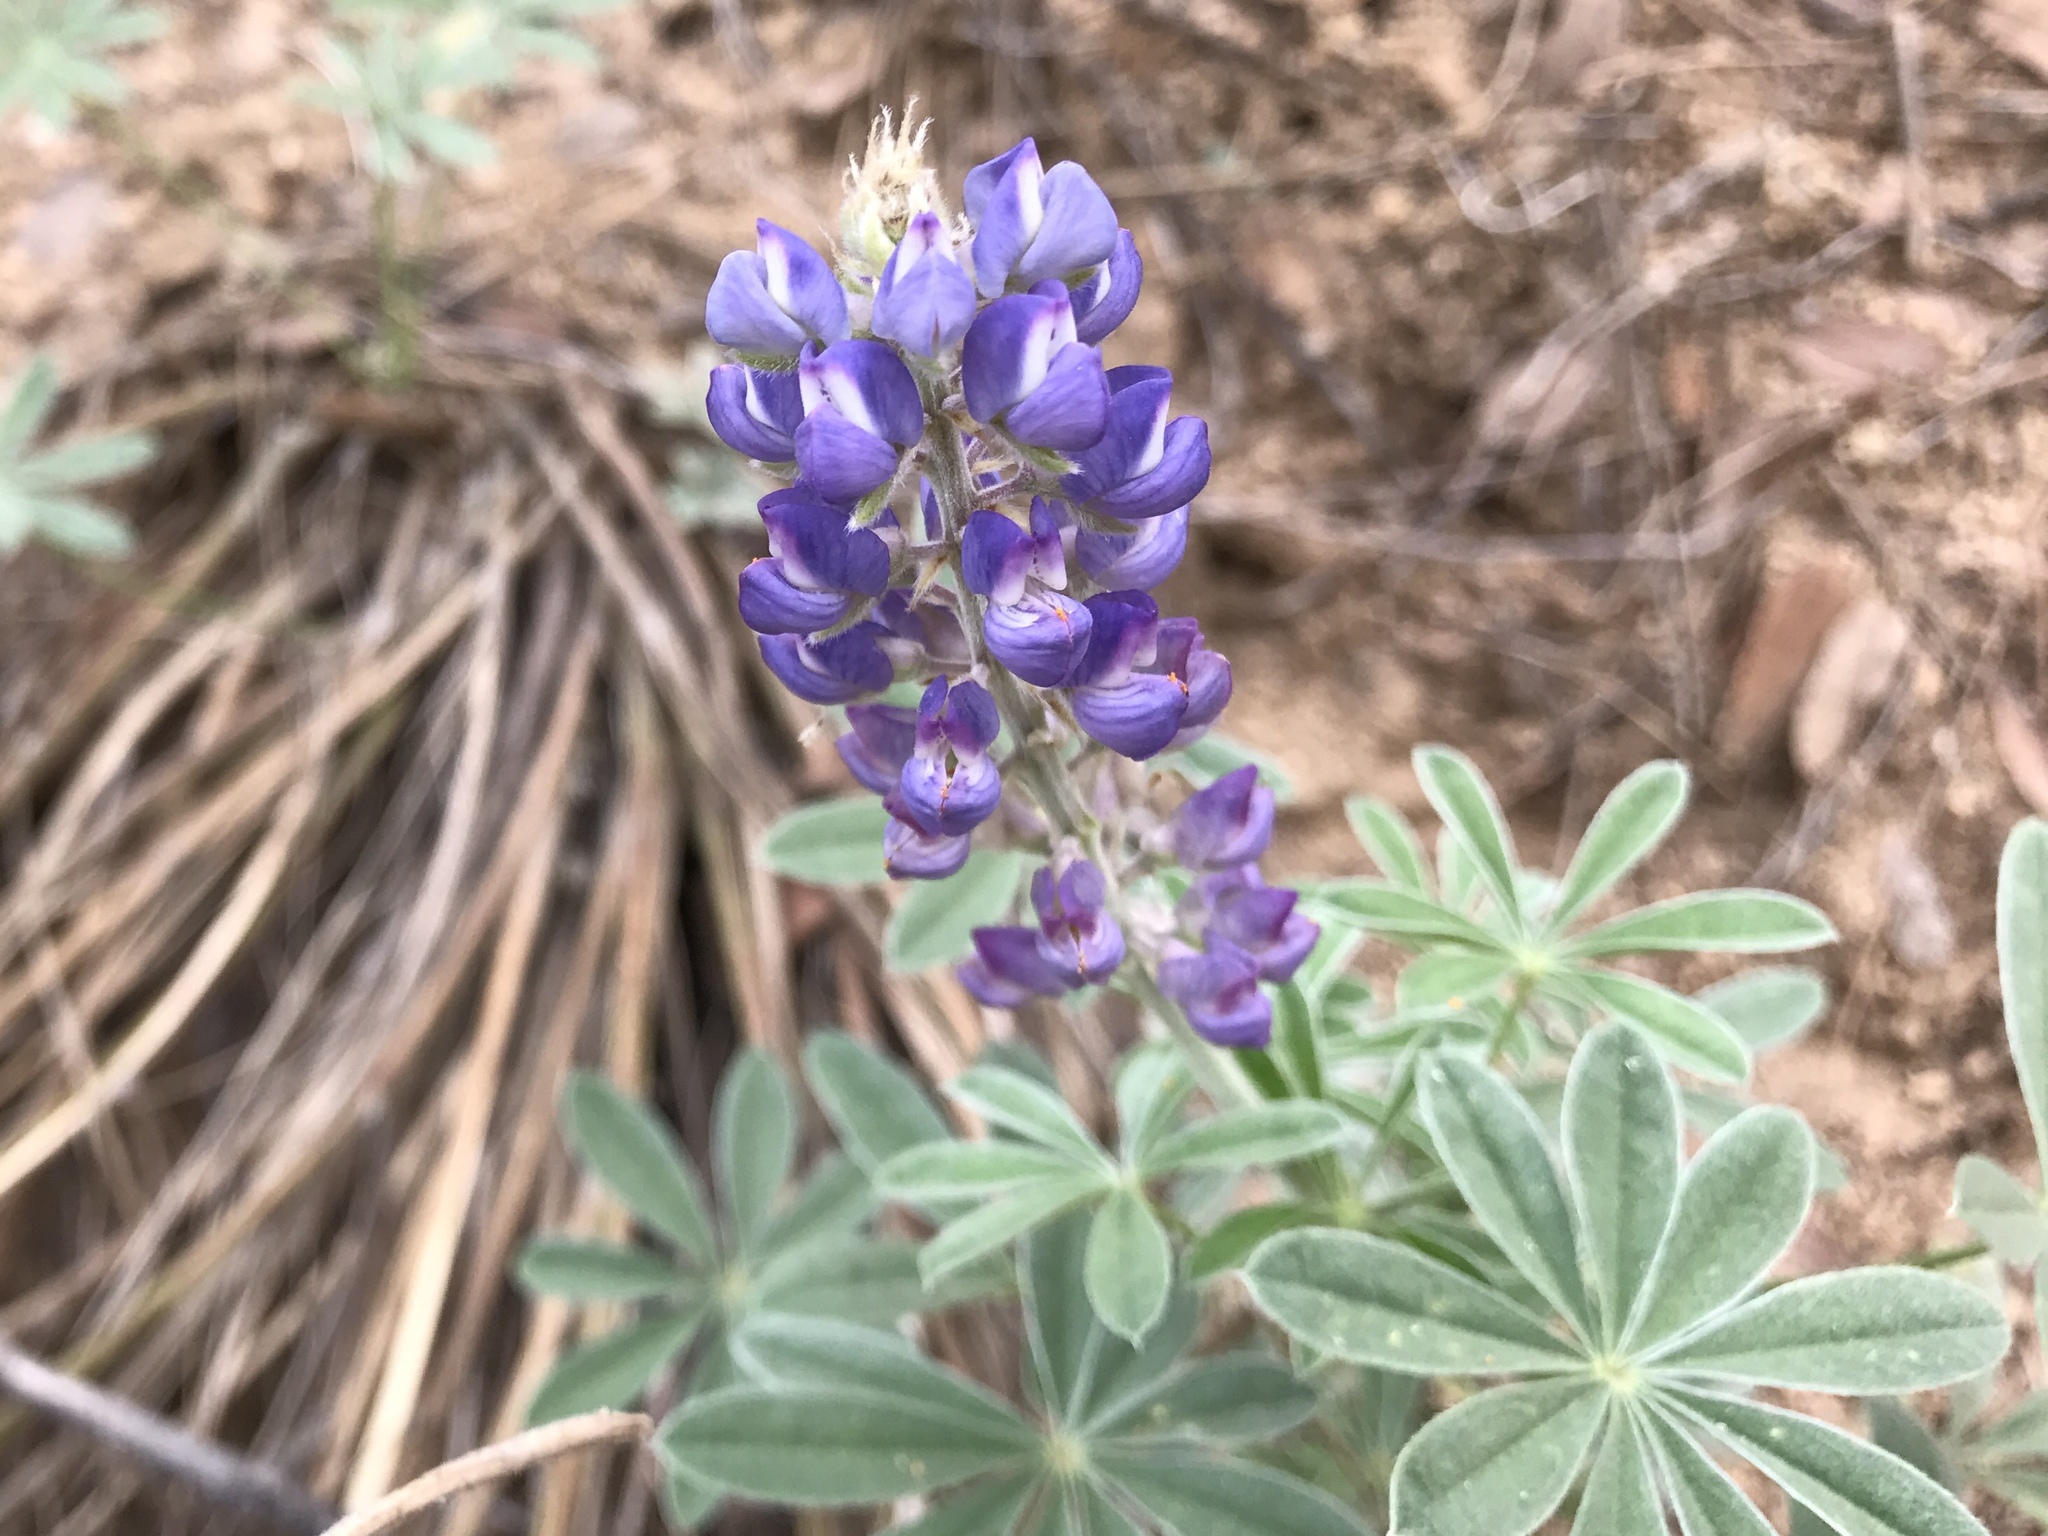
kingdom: Plantae
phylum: Tracheophyta
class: Magnoliopsida
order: Fabales
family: Fabaceae
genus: Lupinus
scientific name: Lupinus sparsiflorus
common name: Coulter's lupine
